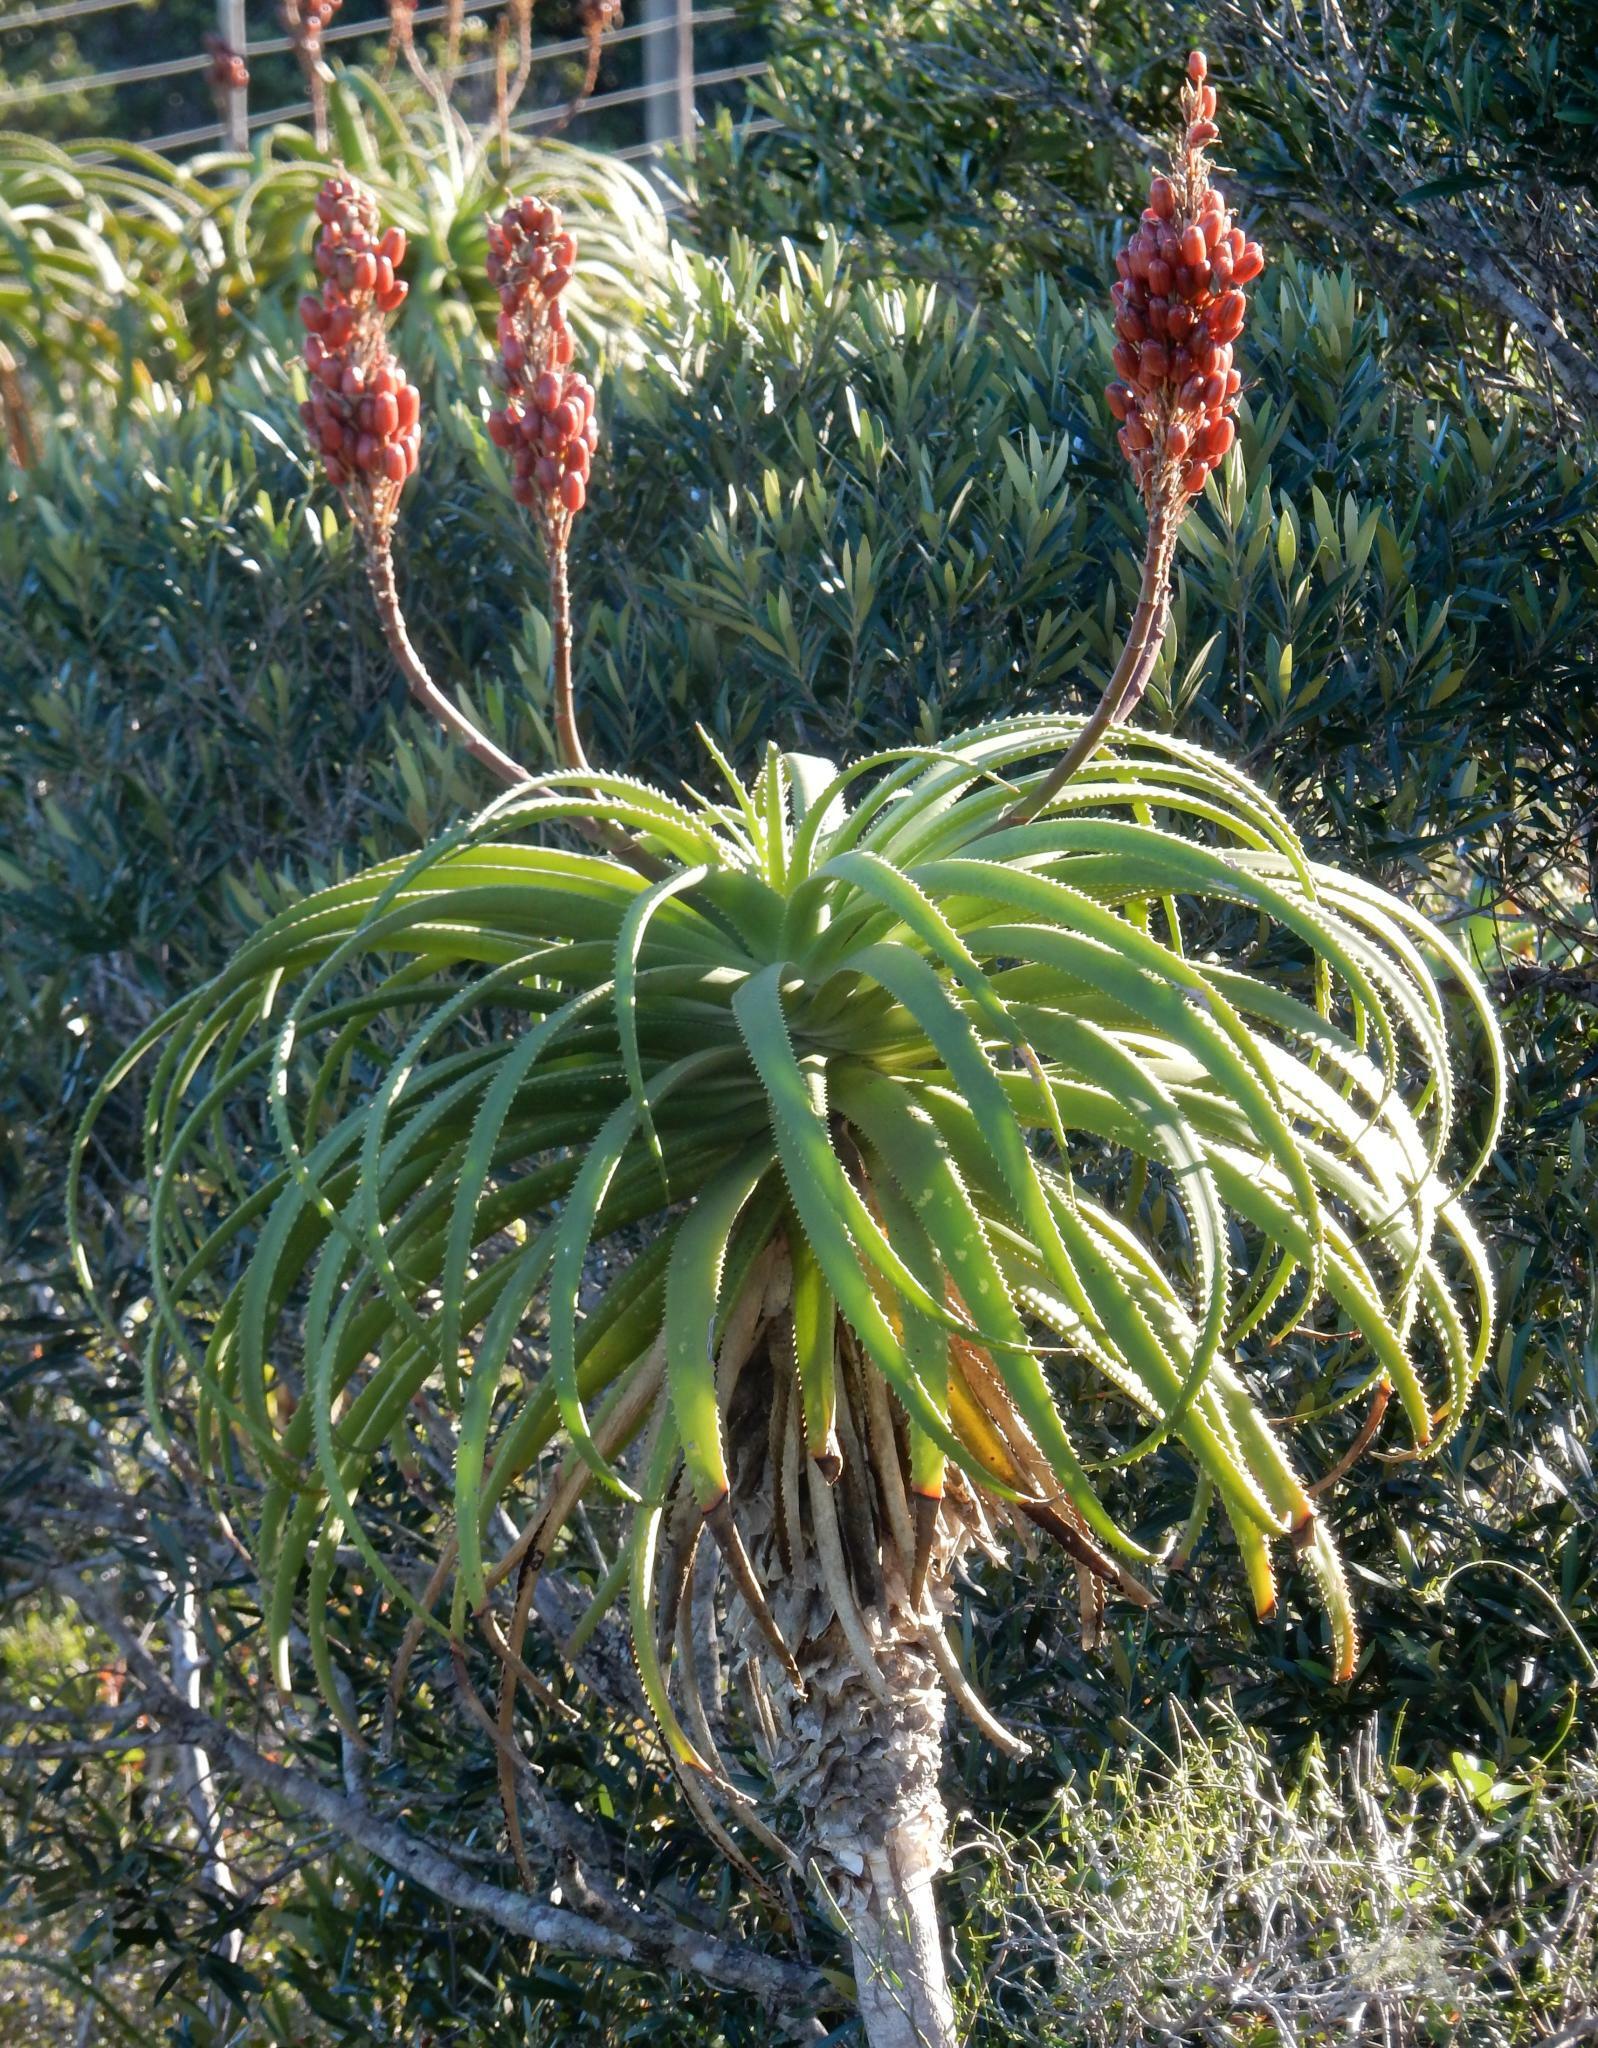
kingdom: Plantae
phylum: Tracheophyta
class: Liliopsida
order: Asparagales
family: Asphodelaceae
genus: Aloe
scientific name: Aloe pluridens
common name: French aloe
